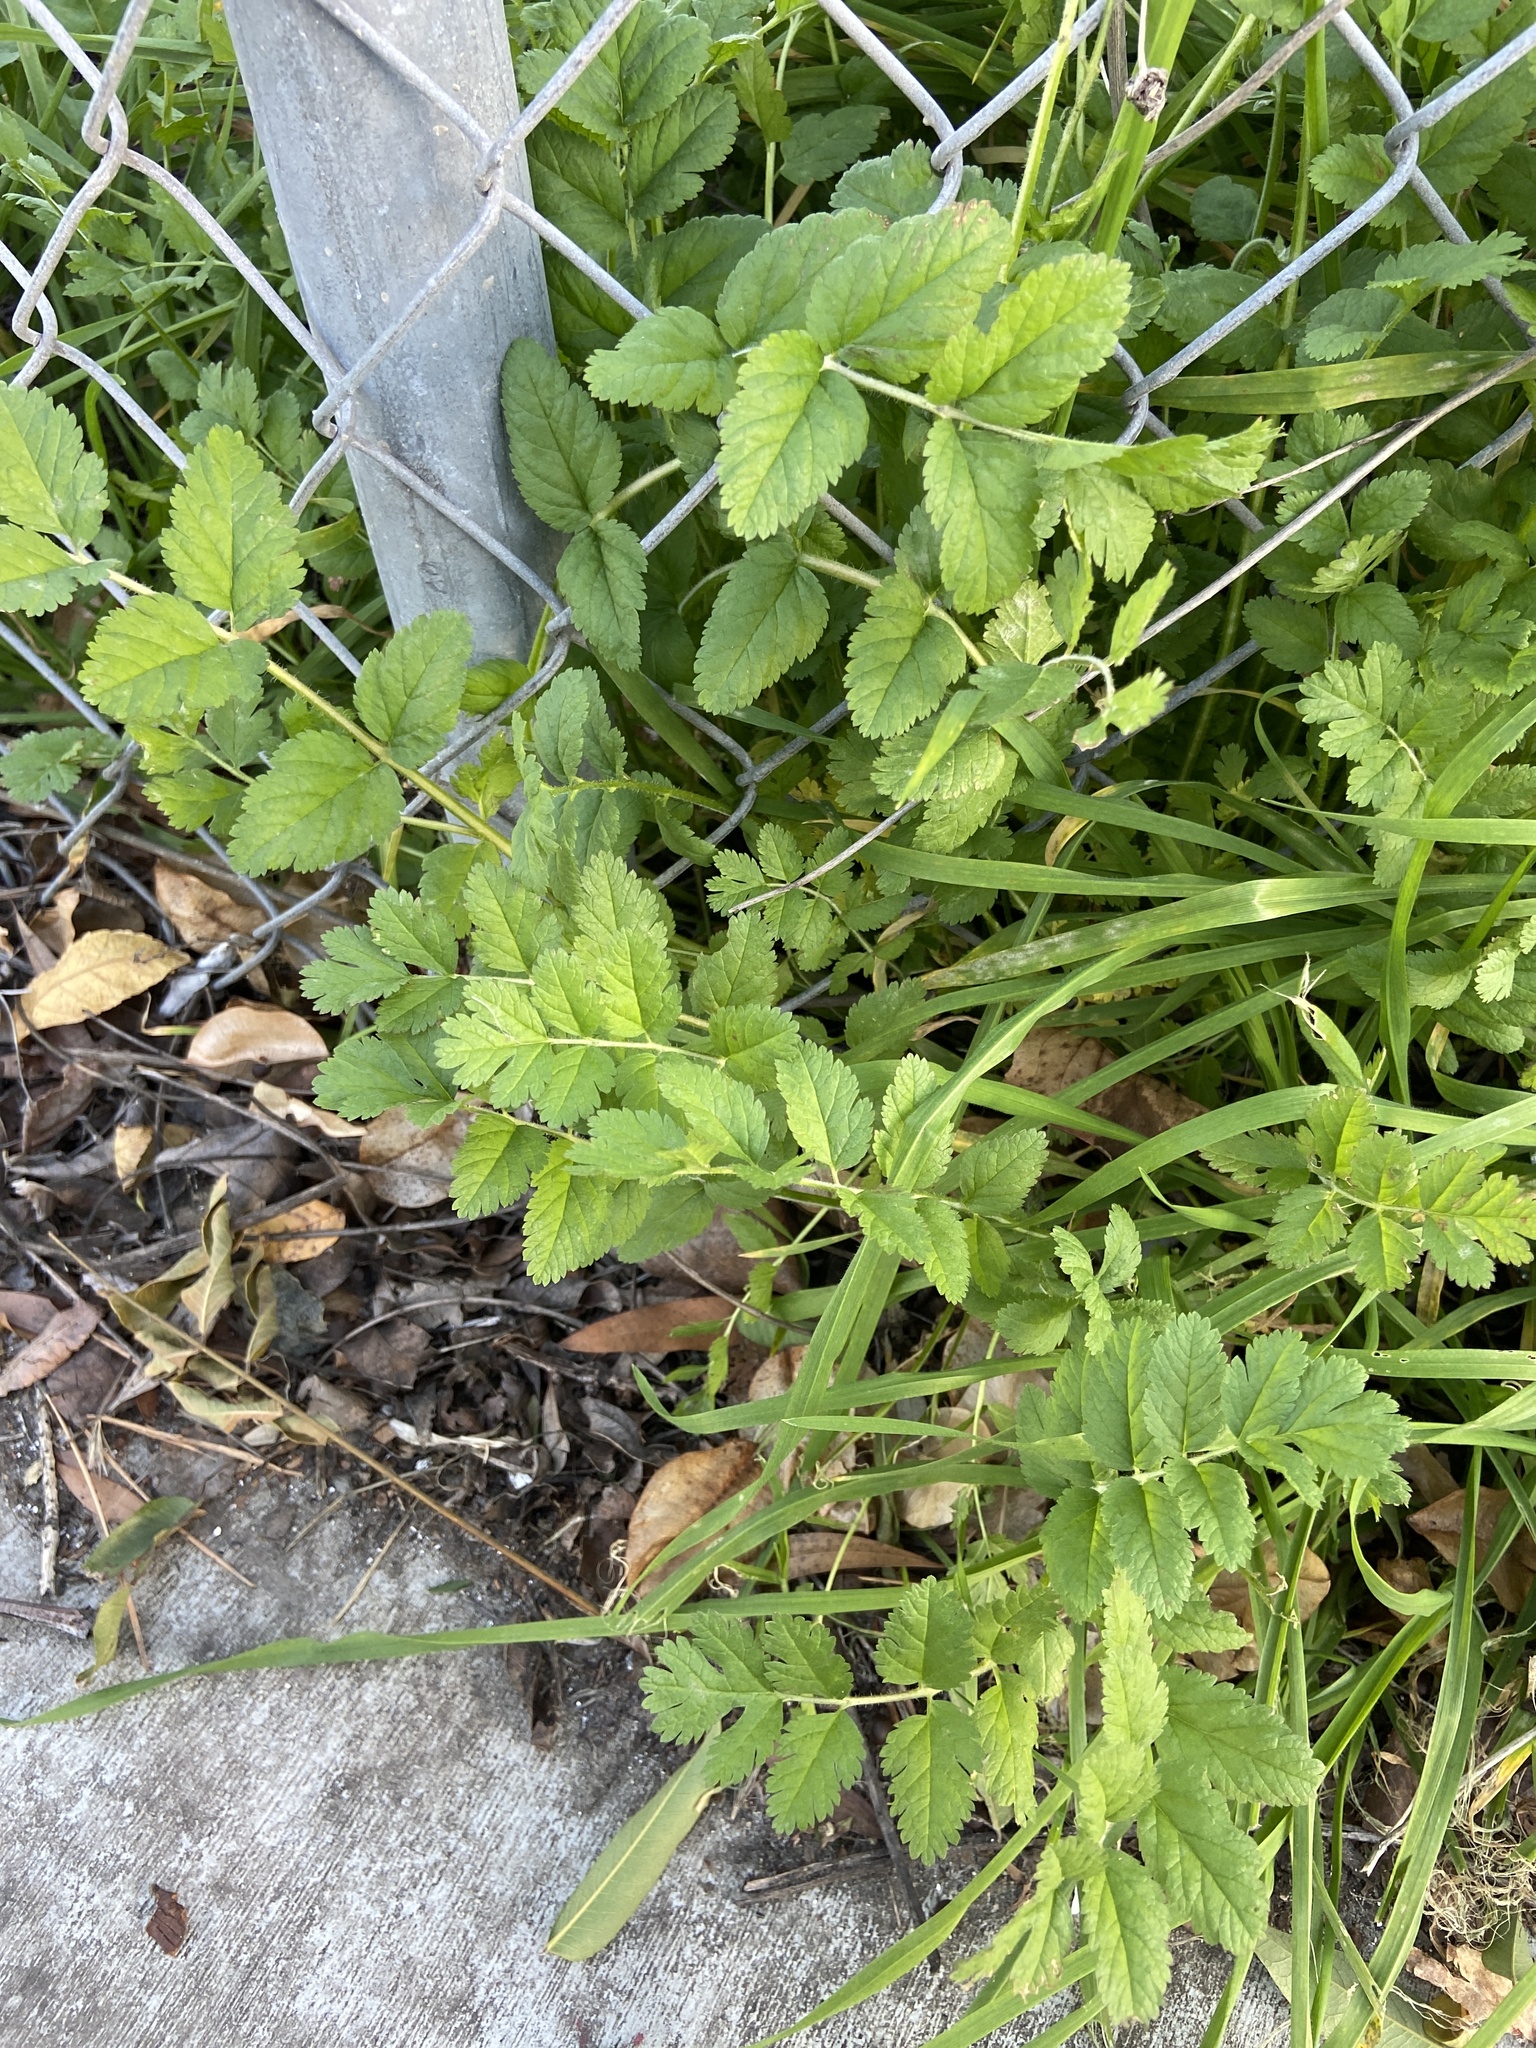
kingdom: Plantae
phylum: Tracheophyta
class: Magnoliopsida
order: Geraniales
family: Geraniaceae
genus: Erodium
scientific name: Erodium moschatum
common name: Musk stork's-bill
